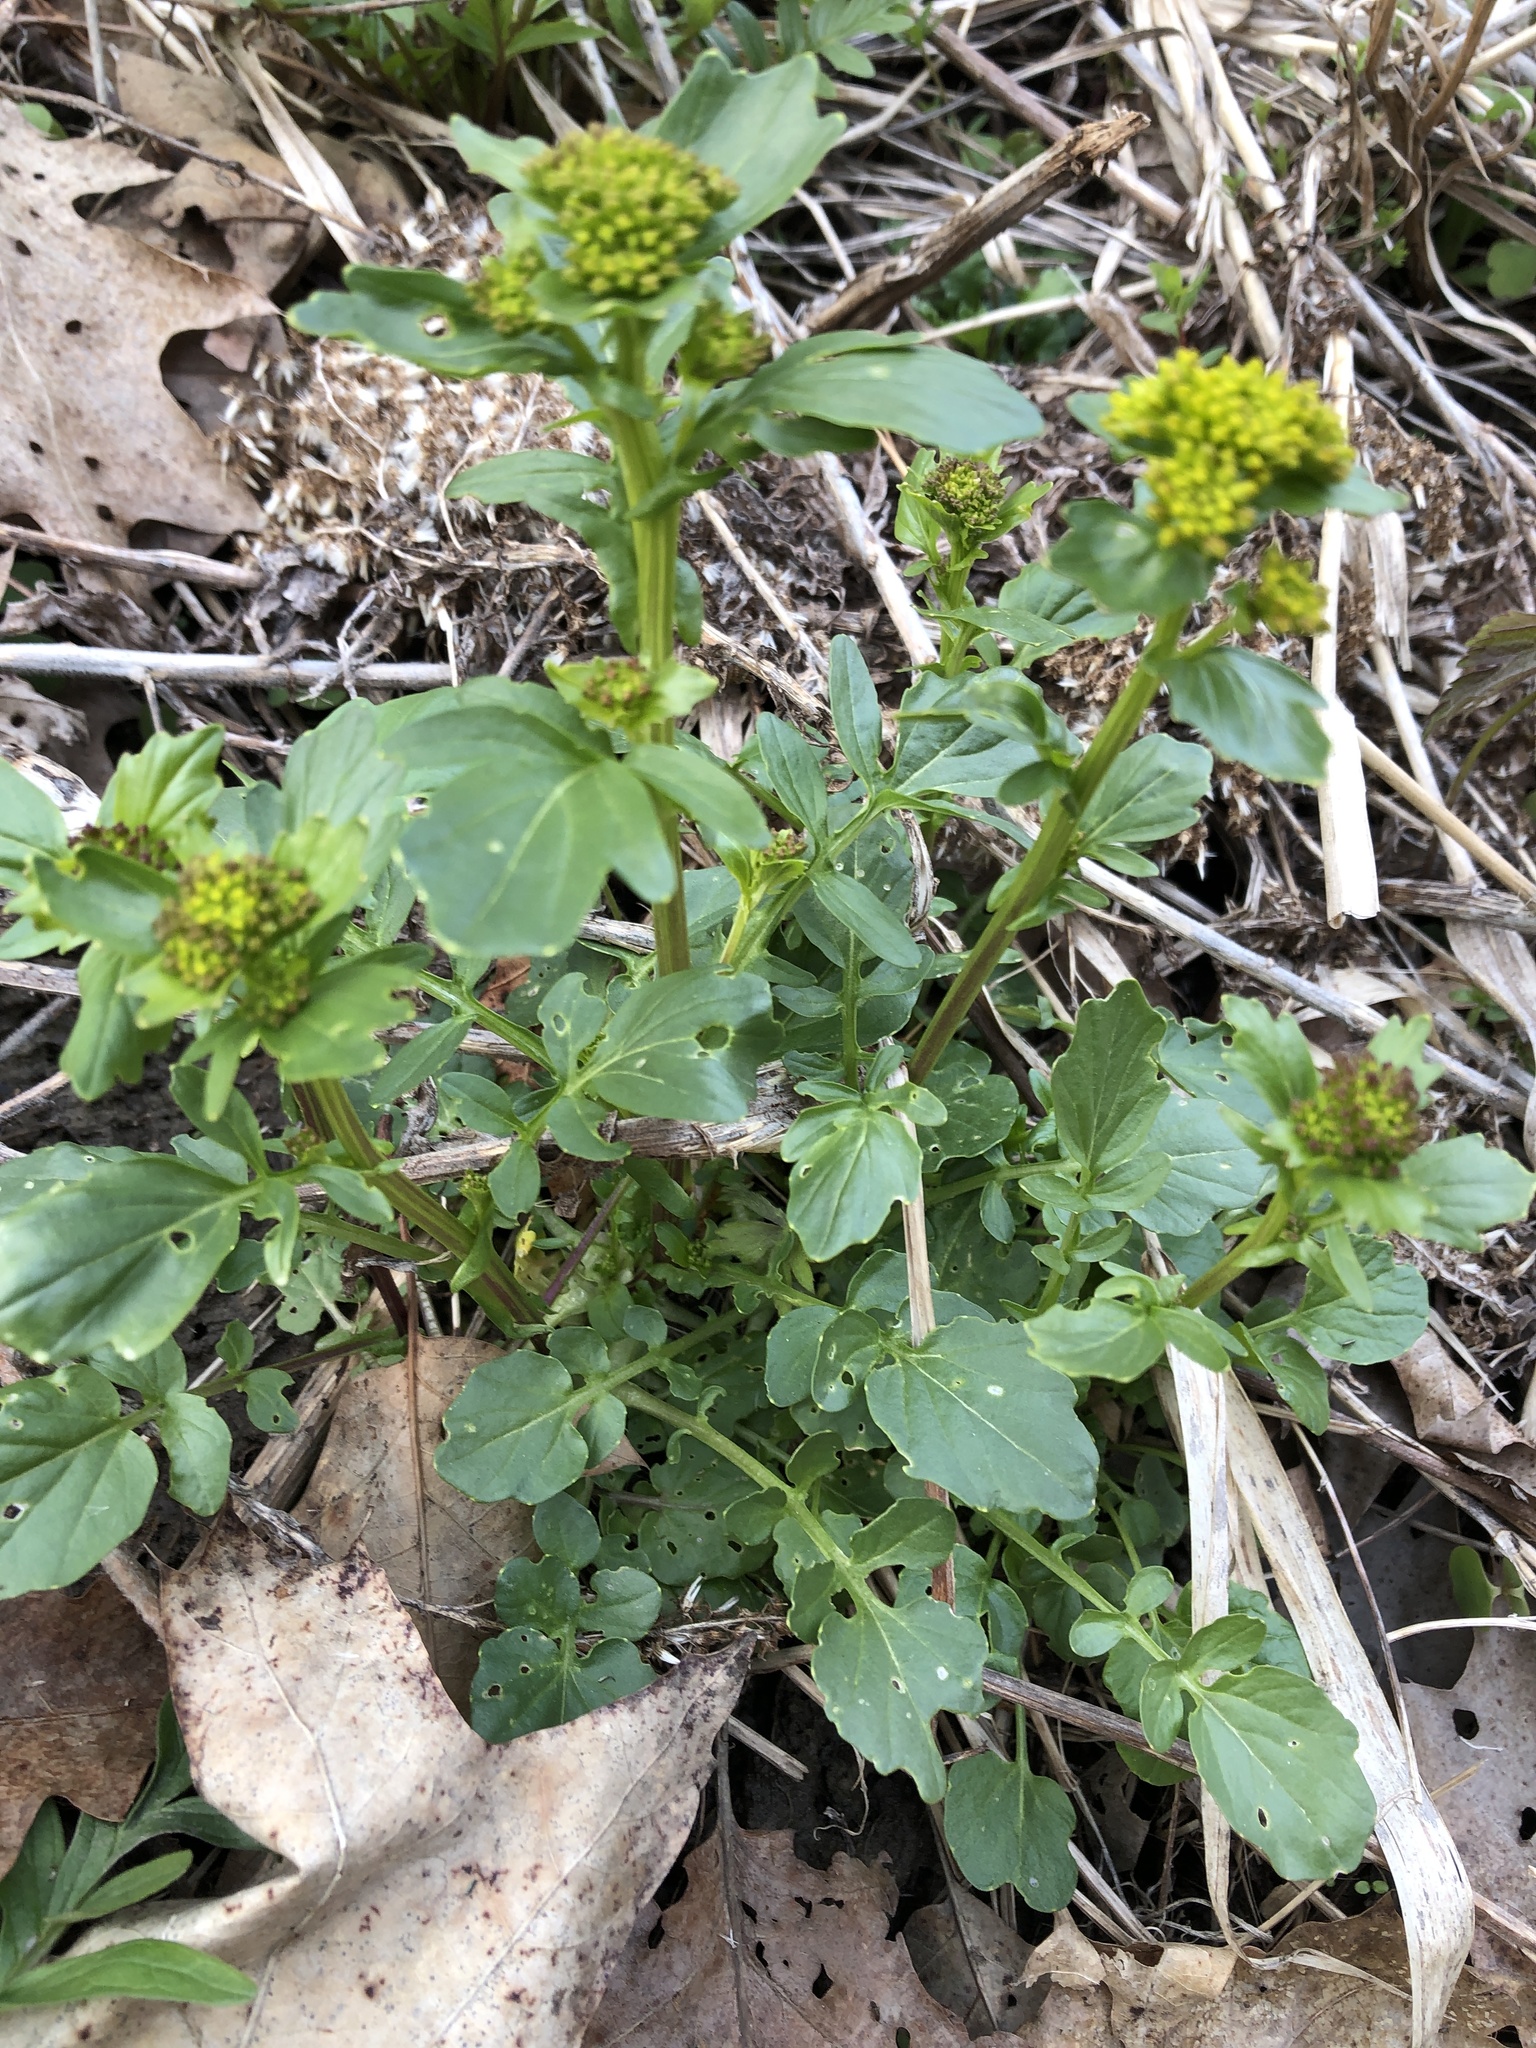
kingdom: Plantae
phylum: Tracheophyta
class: Magnoliopsida
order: Brassicales
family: Brassicaceae
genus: Barbarea
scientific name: Barbarea vulgaris
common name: Cressy-greens
